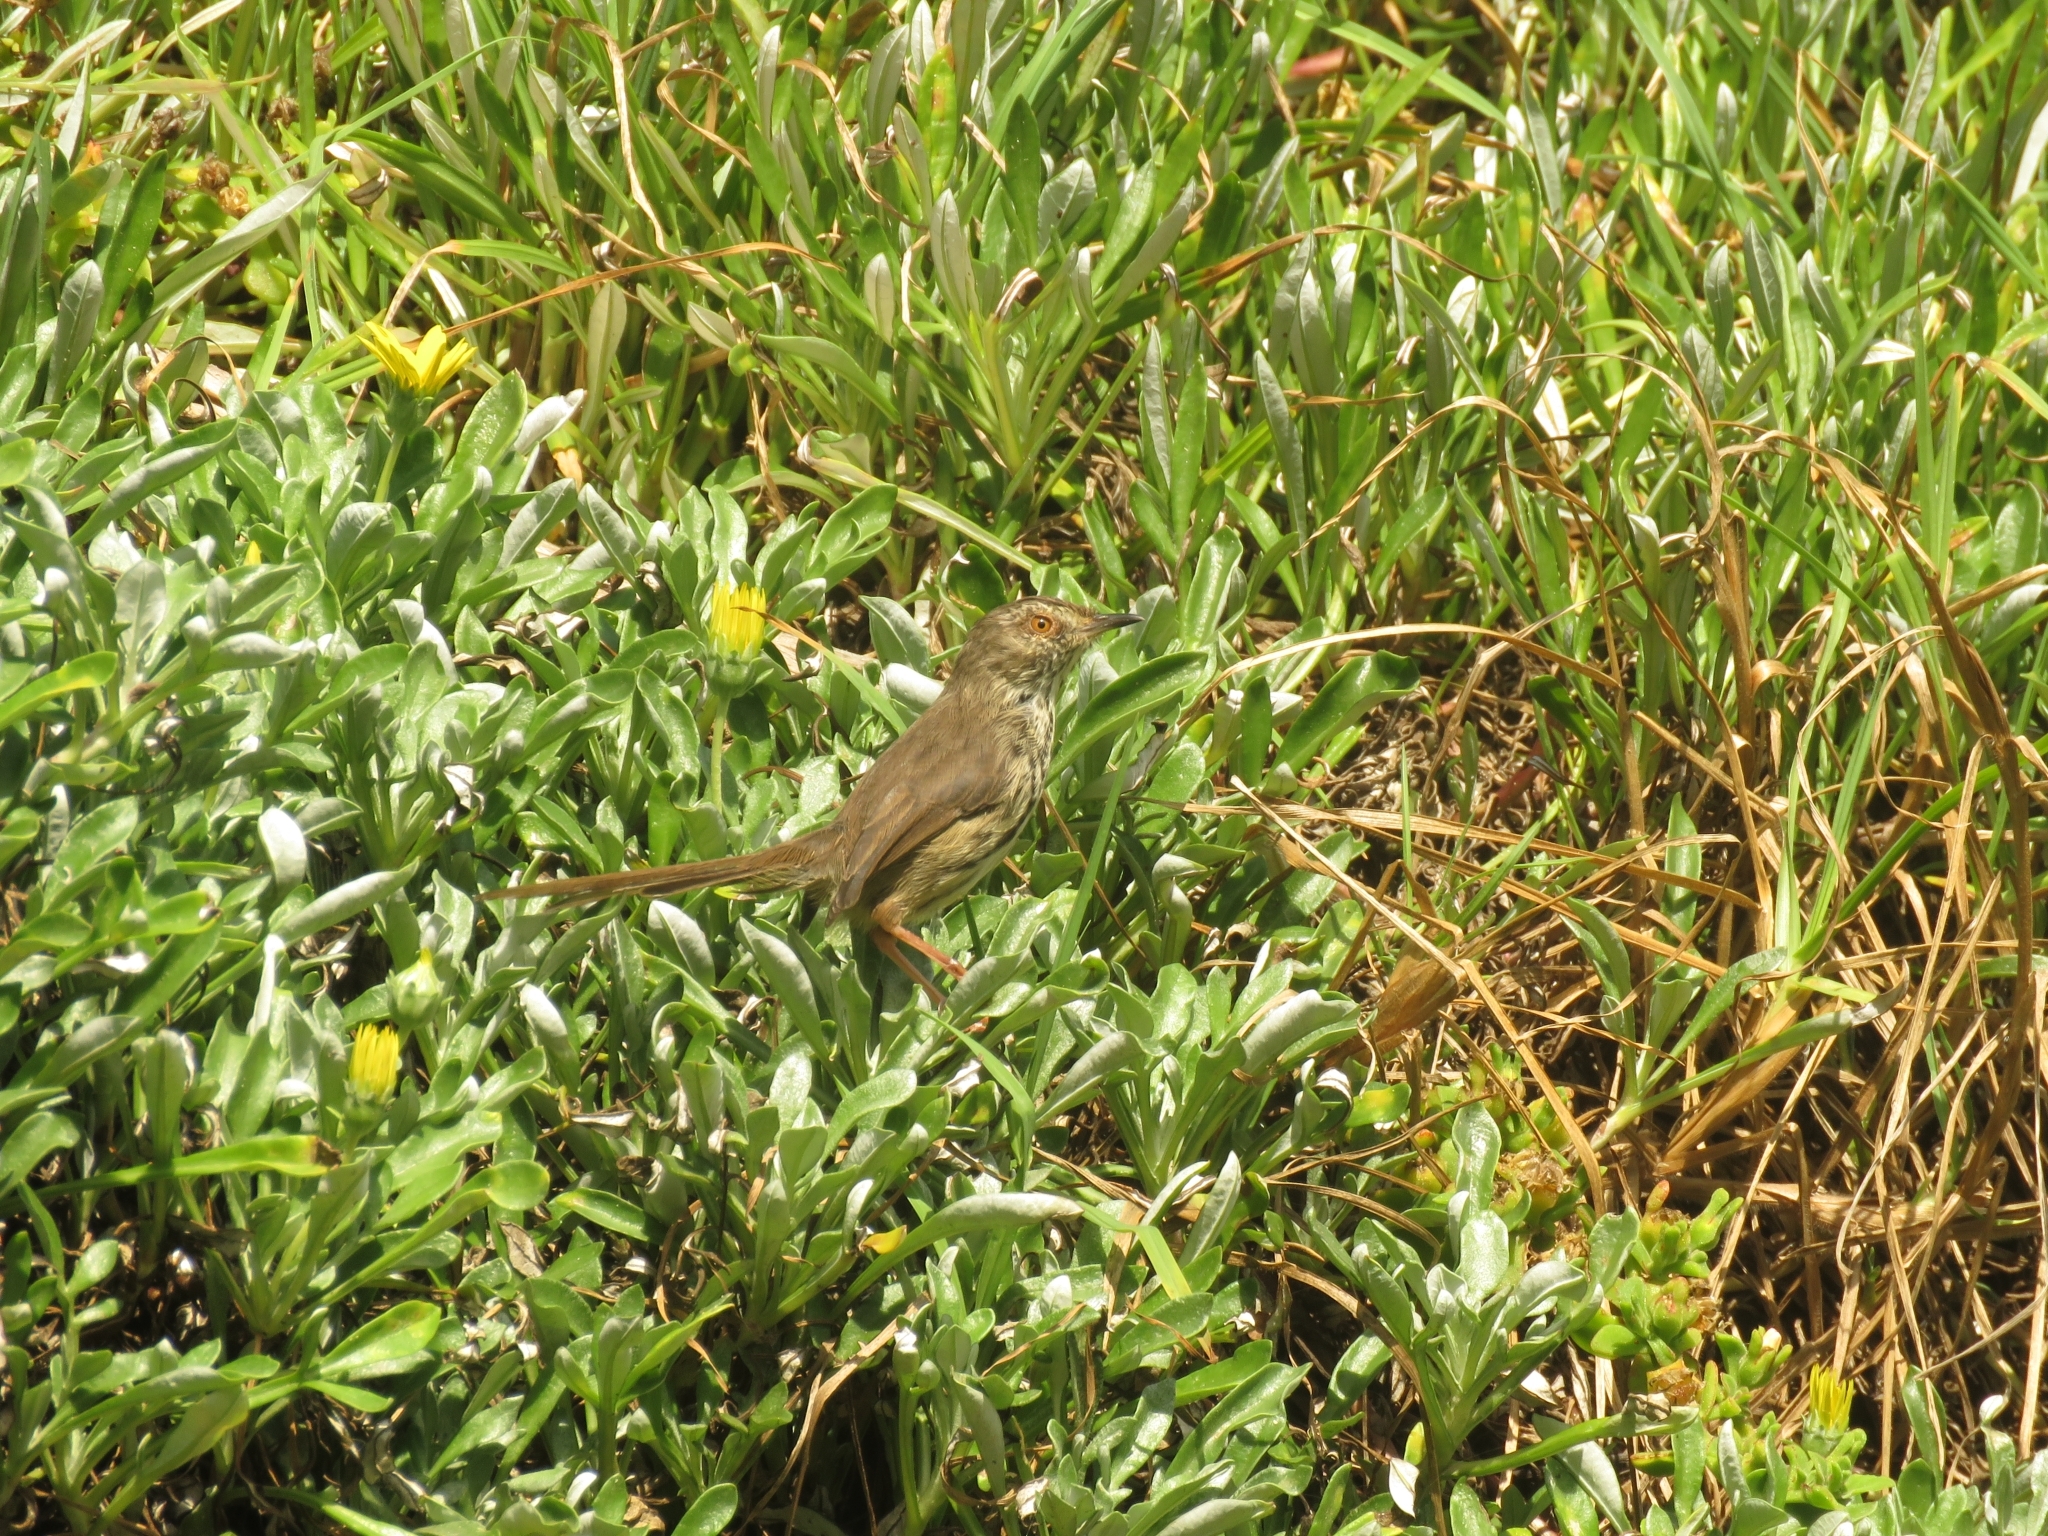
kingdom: Animalia
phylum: Chordata
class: Aves
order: Passeriformes
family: Cisticolidae
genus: Prinia
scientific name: Prinia maculosa
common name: Karoo prinia
